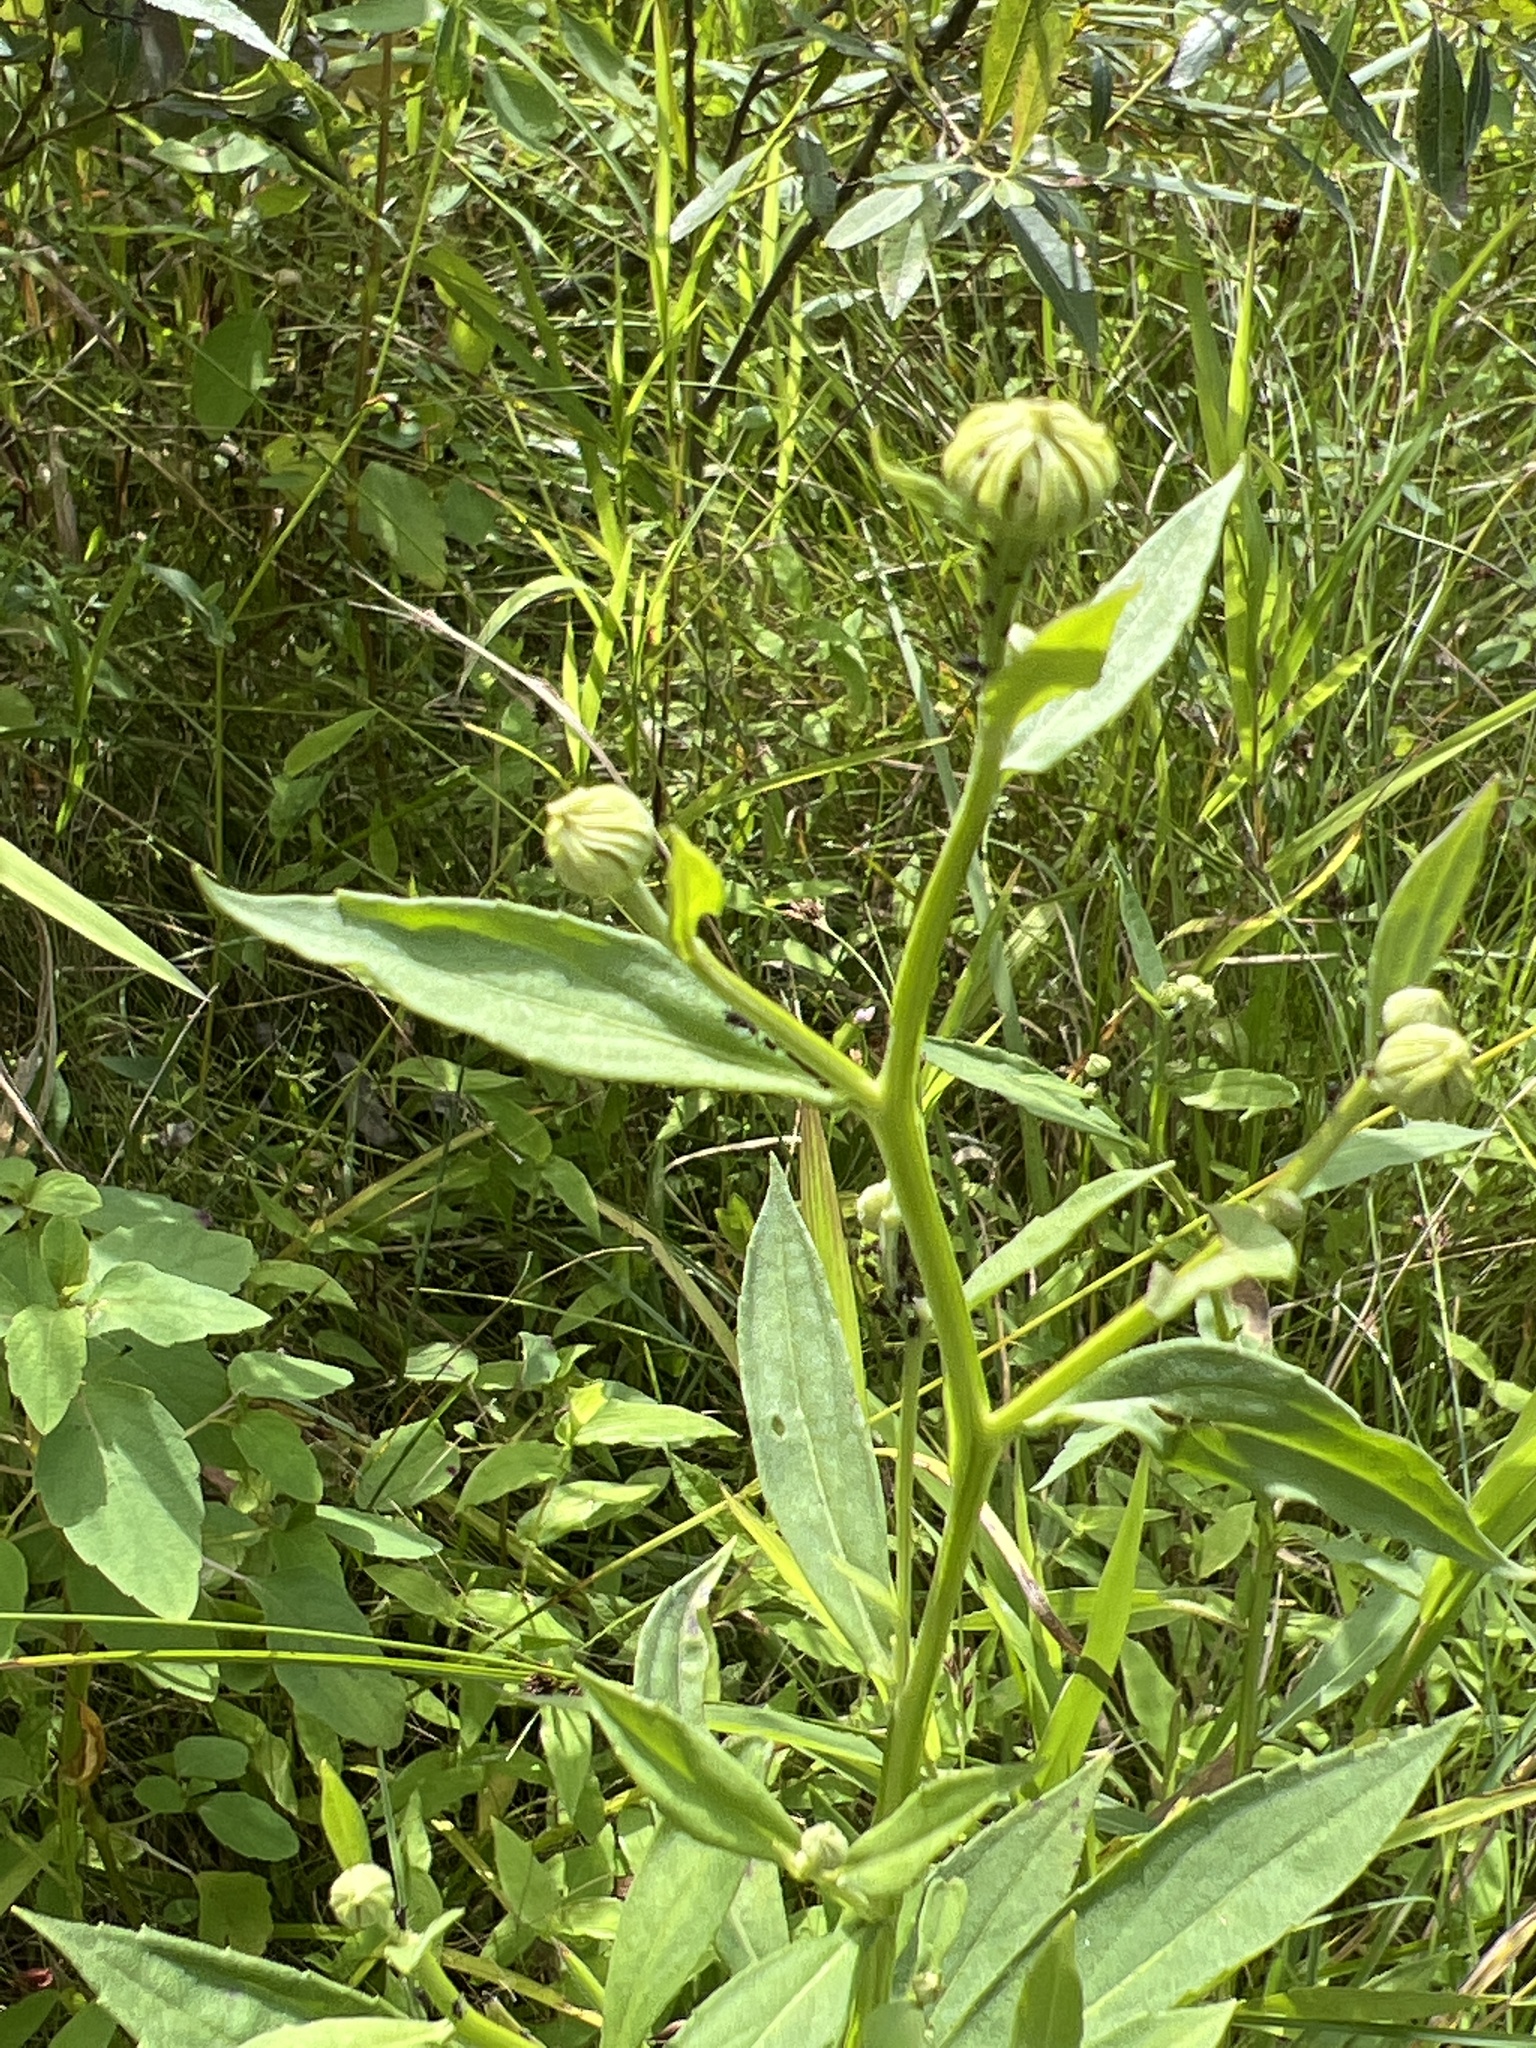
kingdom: Plantae
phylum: Tracheophyta
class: Magnoliopsida
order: Asterales
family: Asteraceae
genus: Helenium
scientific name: Helenium autumnale
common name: Sneezeweed
